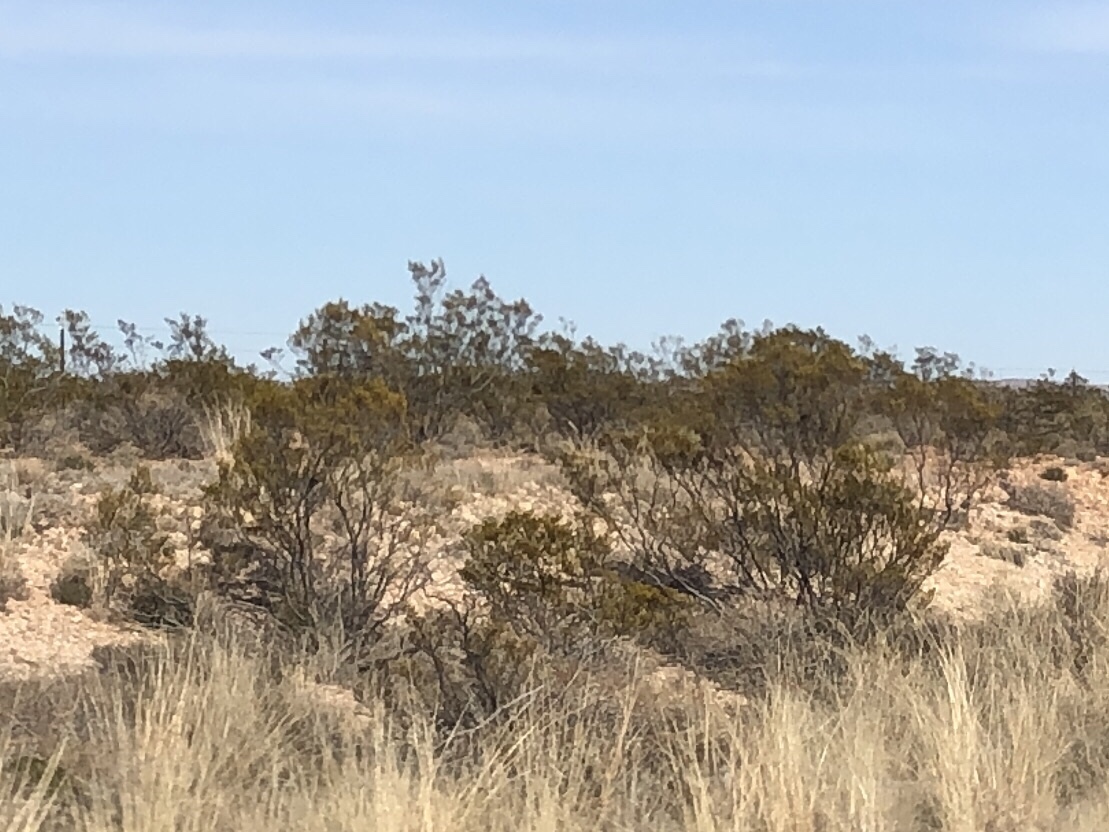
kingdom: Plantae
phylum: Tracheophyta
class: Magnoliopsida
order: Zygophyllales
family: Zygophyllaceae
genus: Larrea
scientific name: Larrea tridentata
